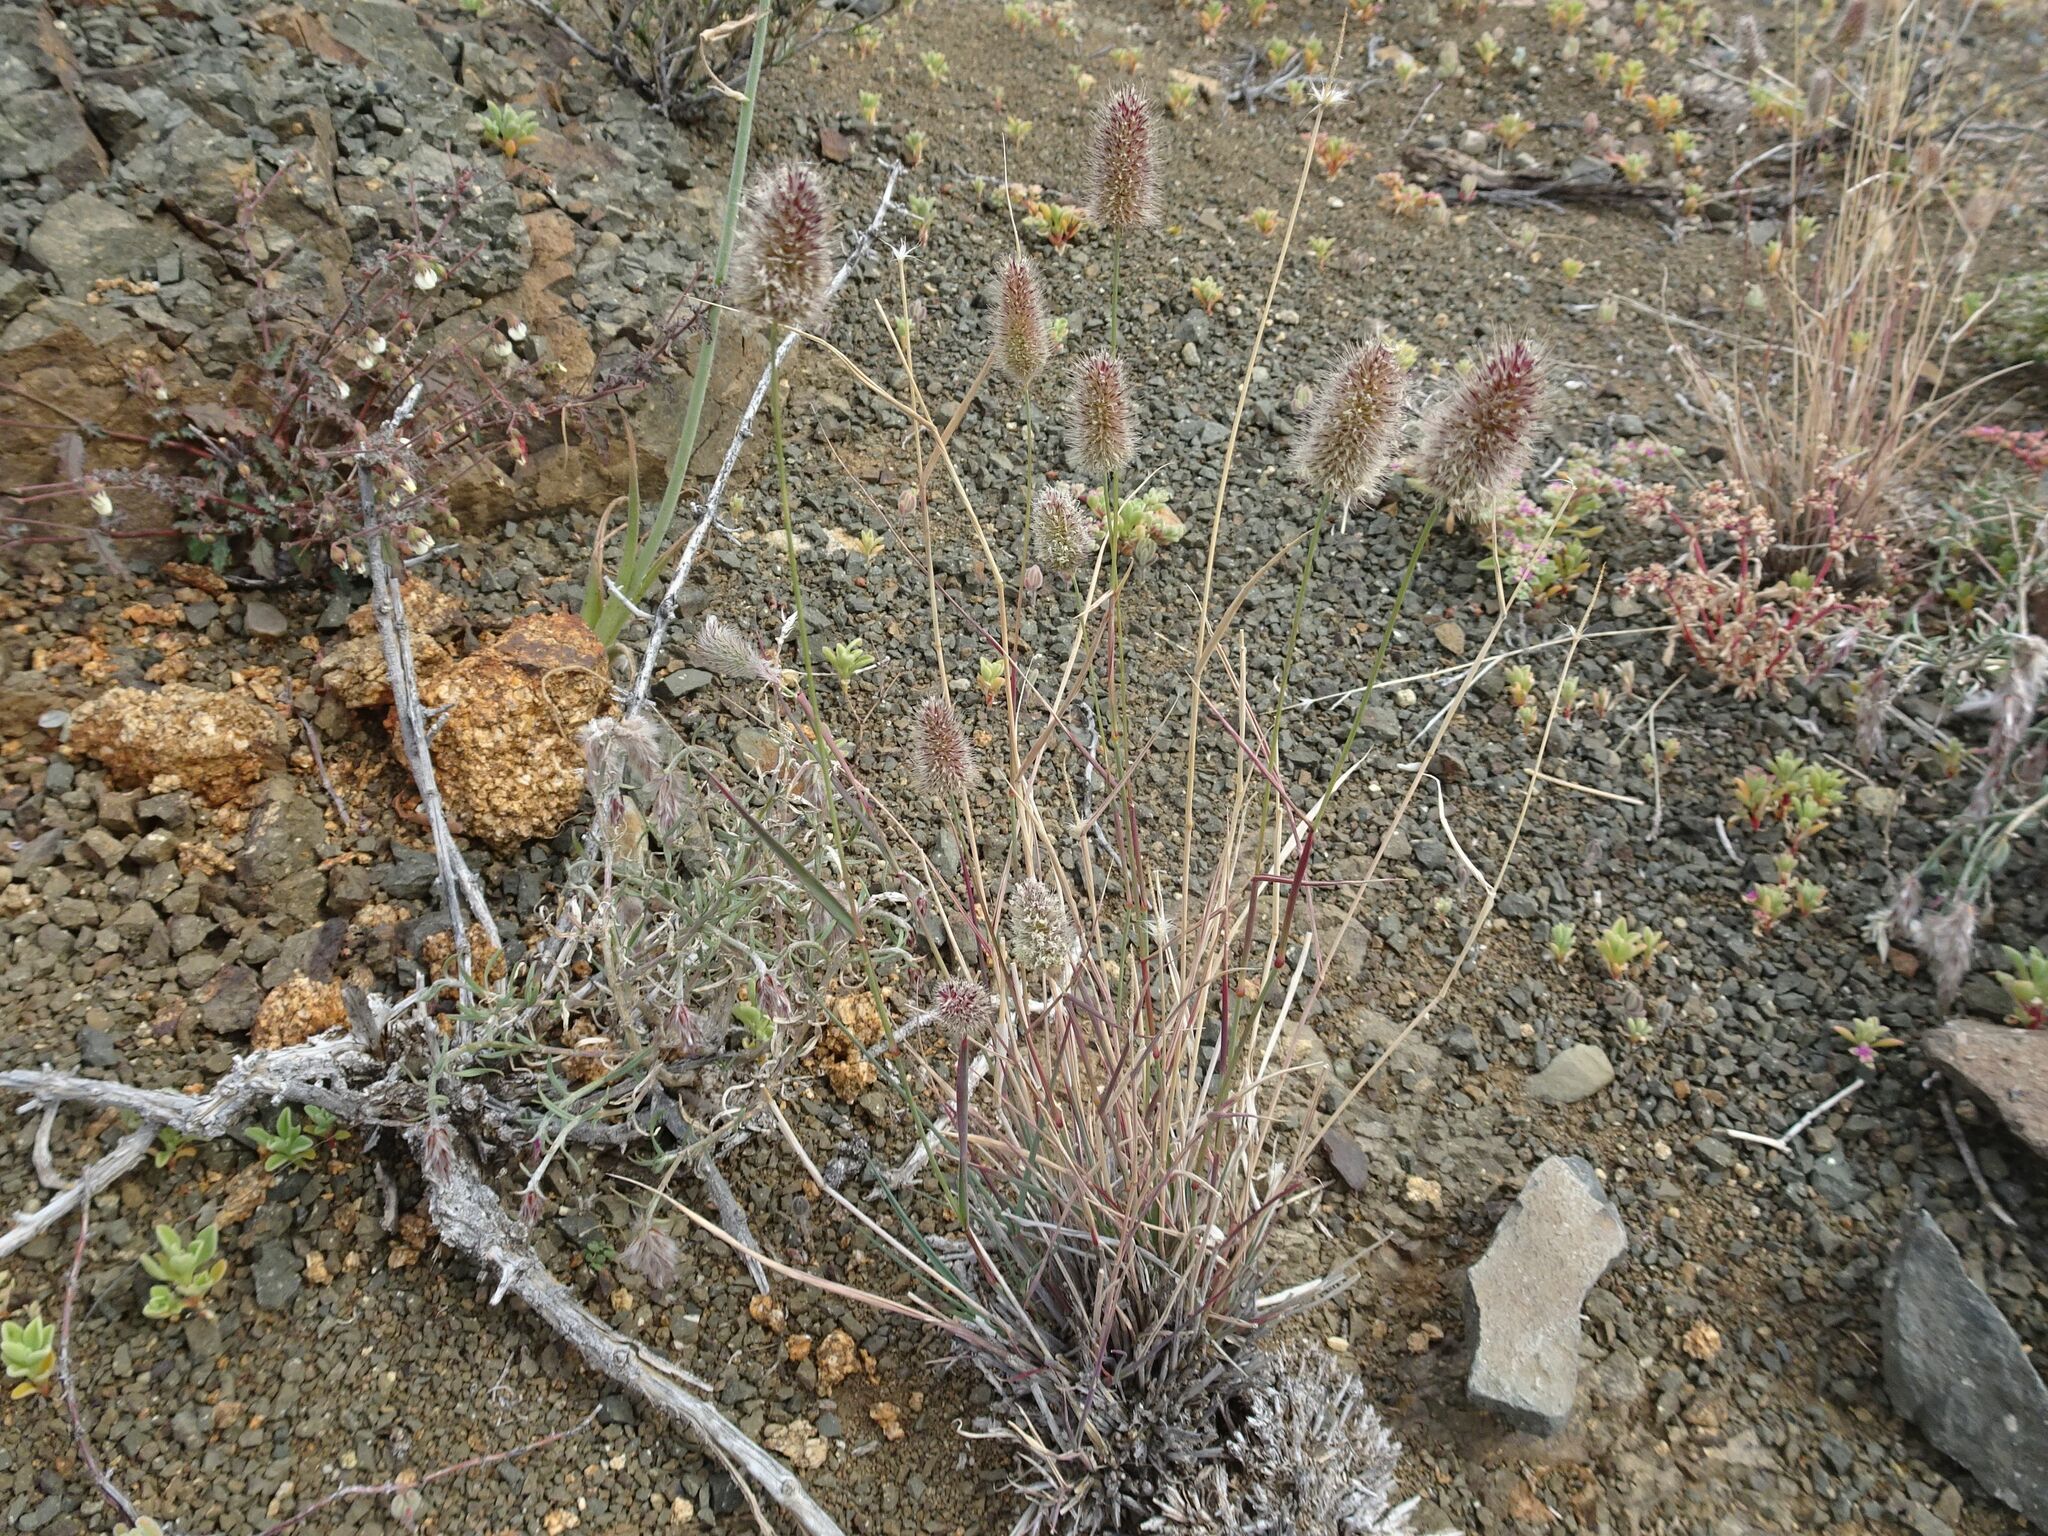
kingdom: Plantae
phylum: Tracheophyta
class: Liliopsida
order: Poales
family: Poaceae
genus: Fingerhuthia
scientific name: Fingerhuthia africana
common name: Zulu fescue
